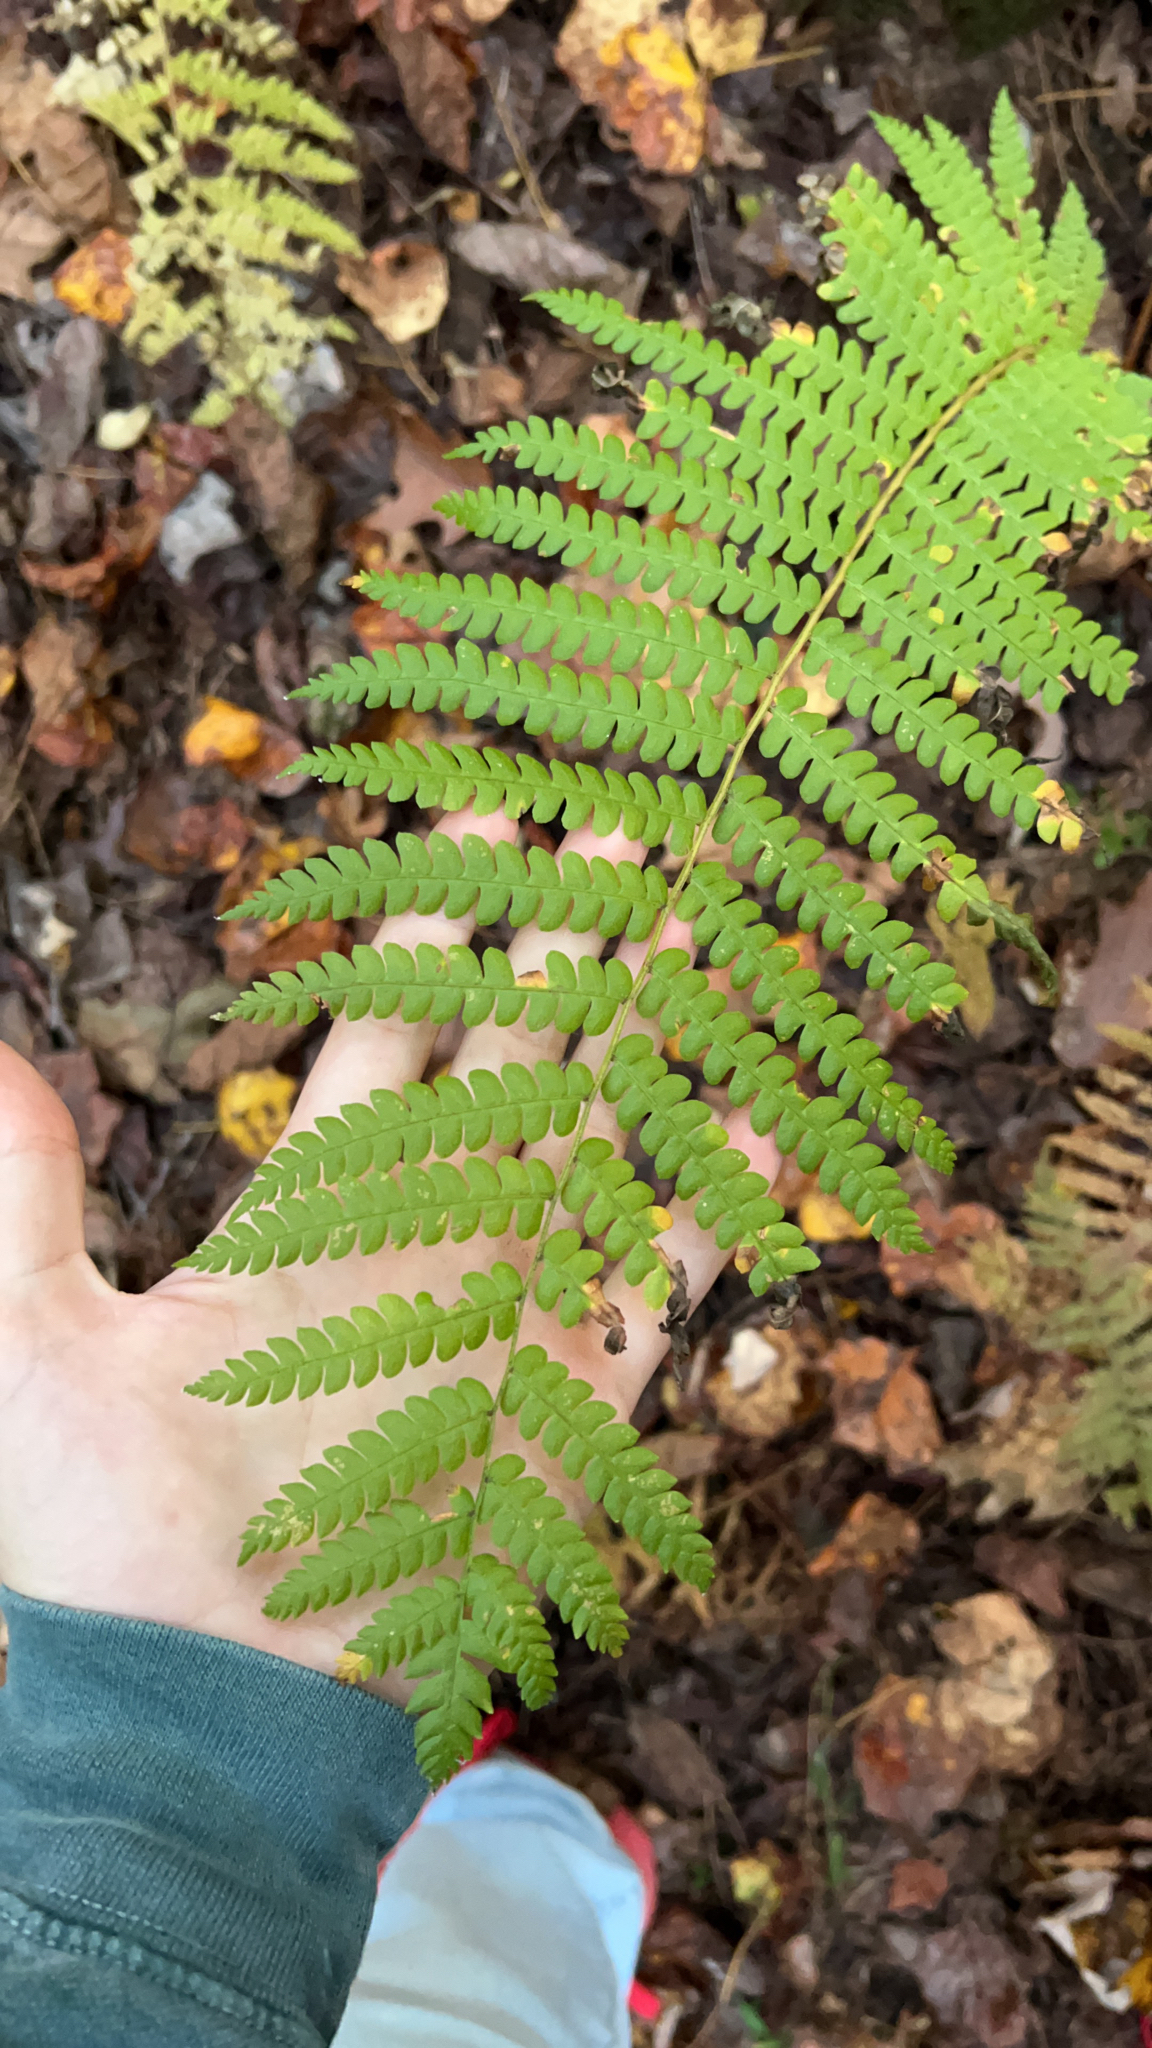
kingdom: Plantae
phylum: Tracheophyta
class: Polypodiopsida
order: Osmundales
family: Osmundaceae
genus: Osmundastrum
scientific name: Osmundastrum cinnamomeum
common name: Cinnamon fern
